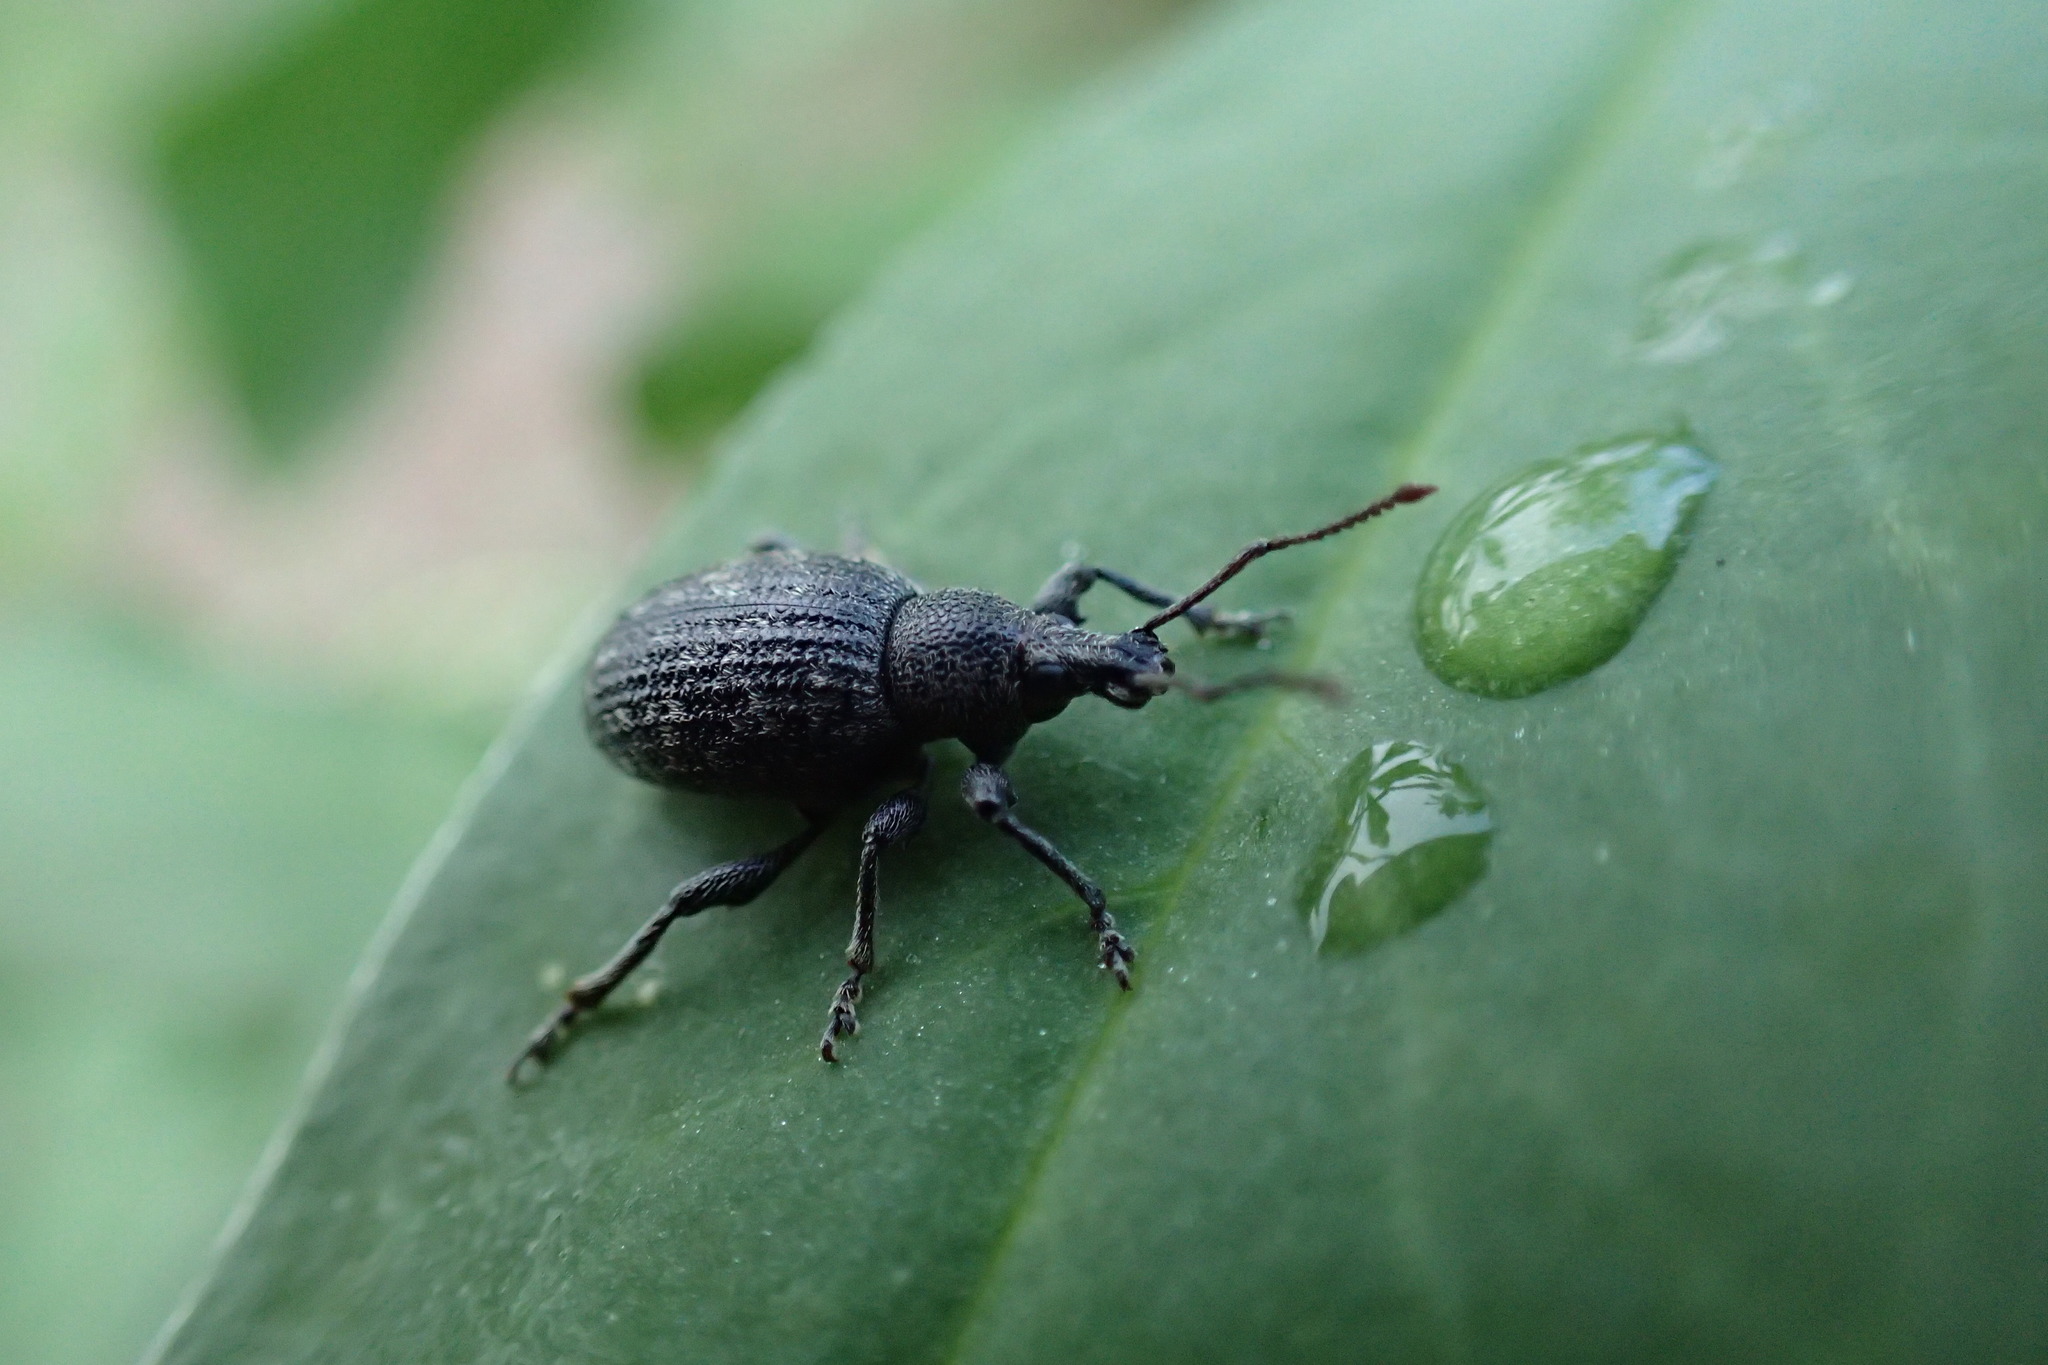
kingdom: Animalia
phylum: Arthropoda
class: Insecta
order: Coleoptera
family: Curculionidae
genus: Otiorhynchus
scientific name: Otiorhynchus tristis
